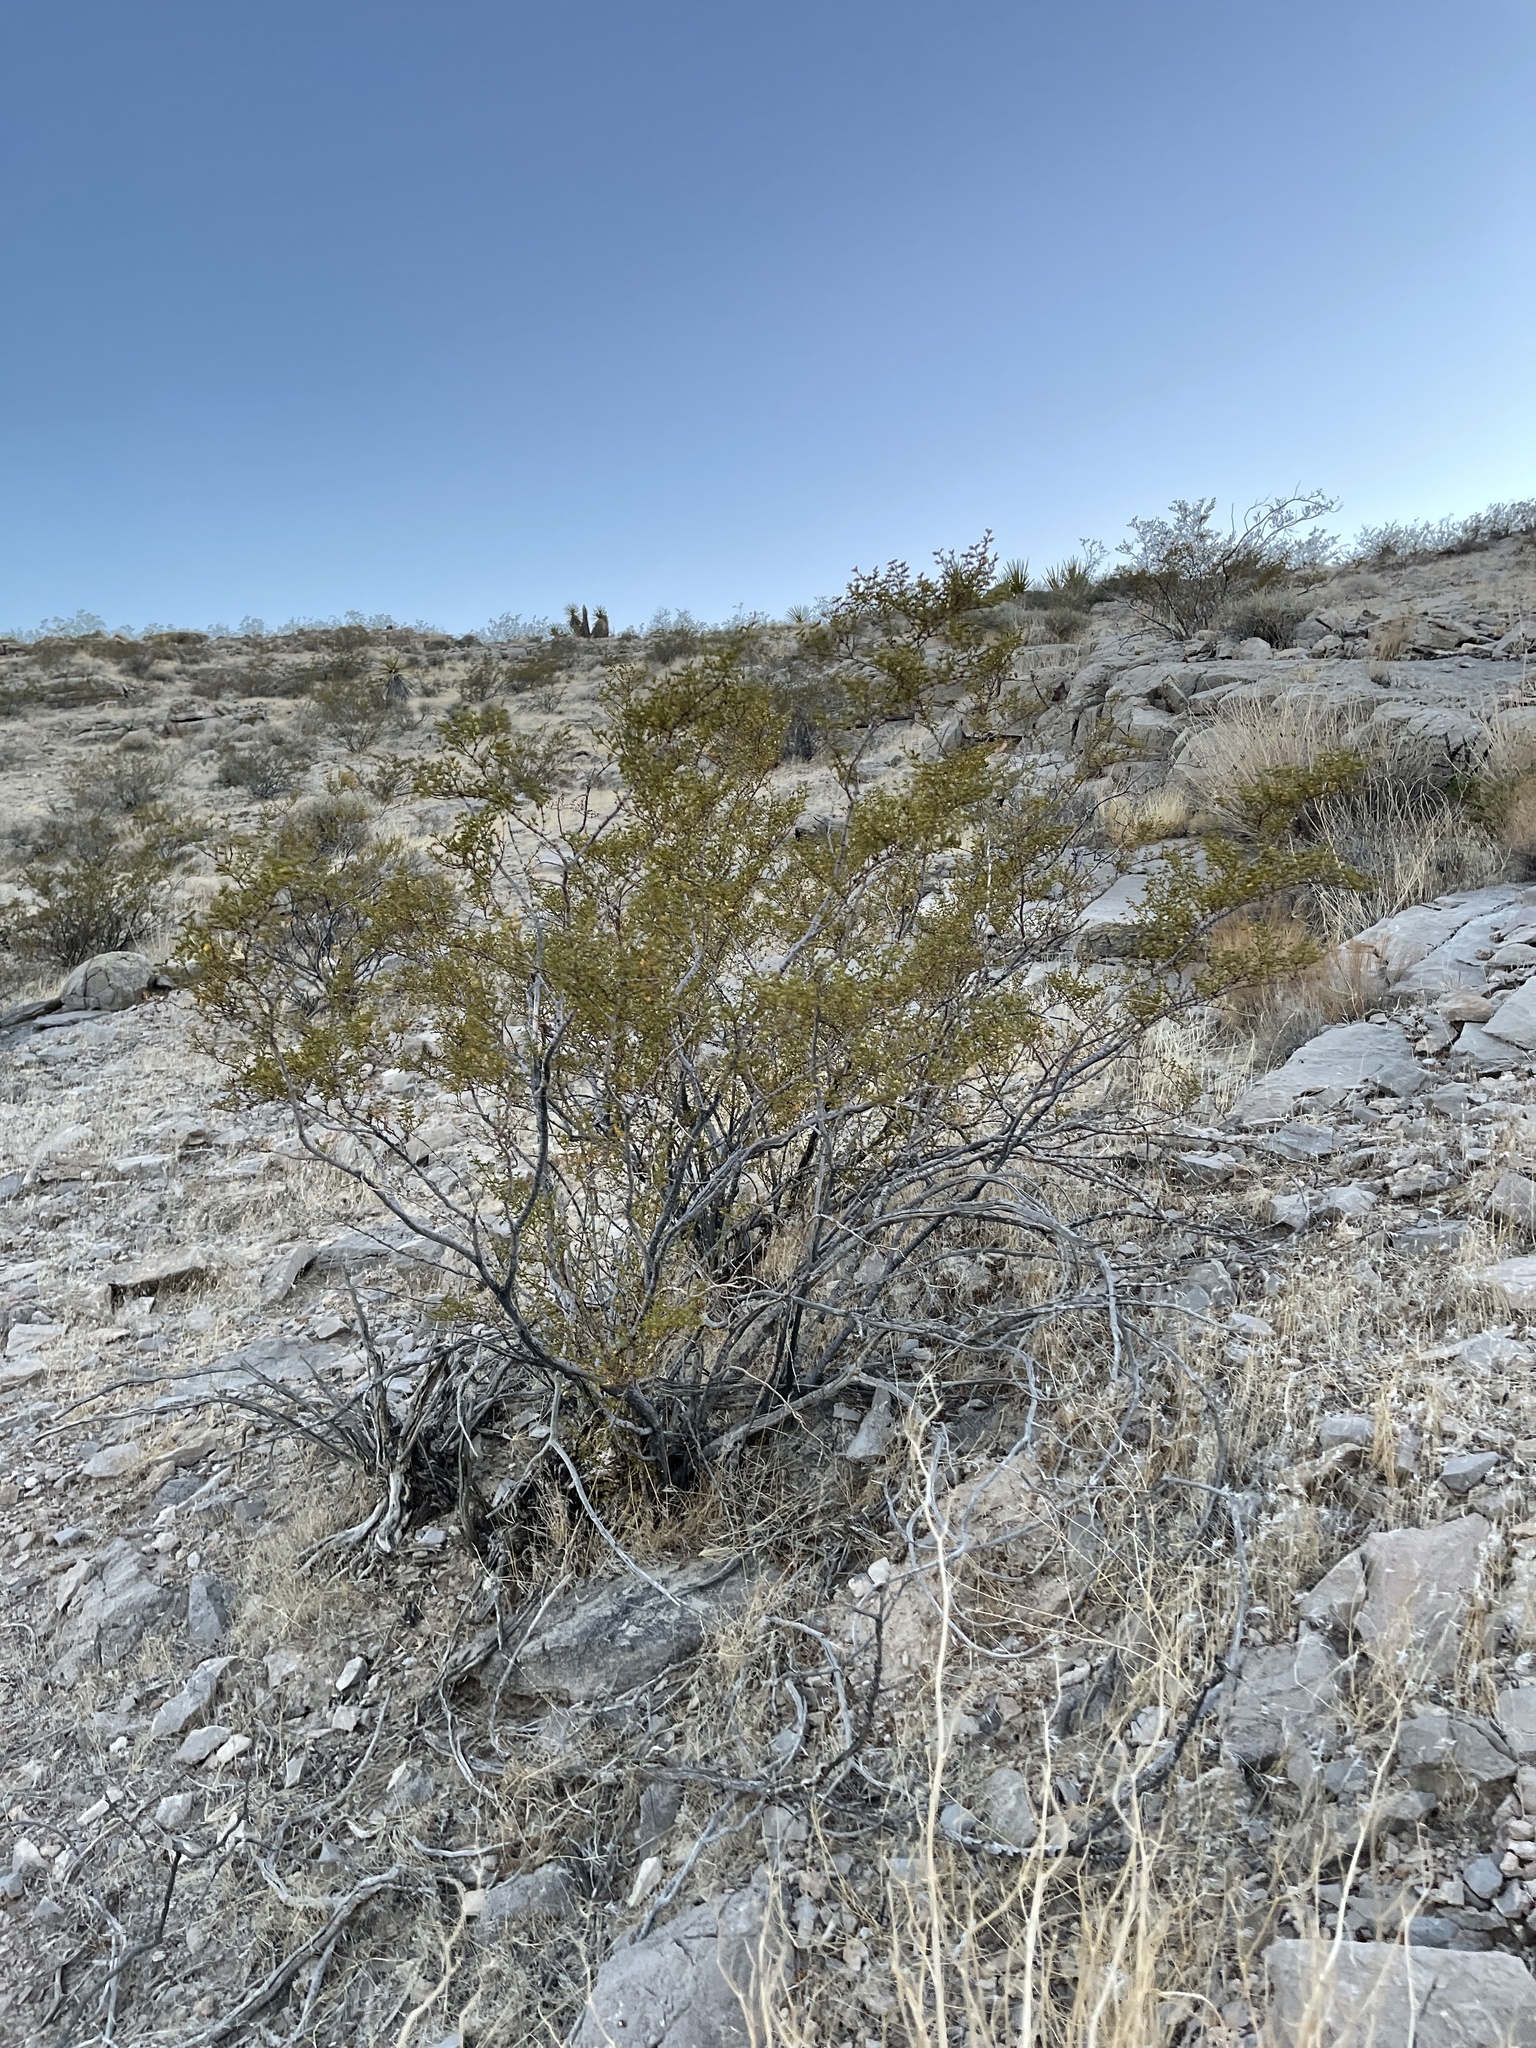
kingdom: Plantae
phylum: Tracheophyta
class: Magnoliopsida
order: Zygophyllales
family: Zygophyllaceae
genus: Larrea
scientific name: Larrea tridentata
